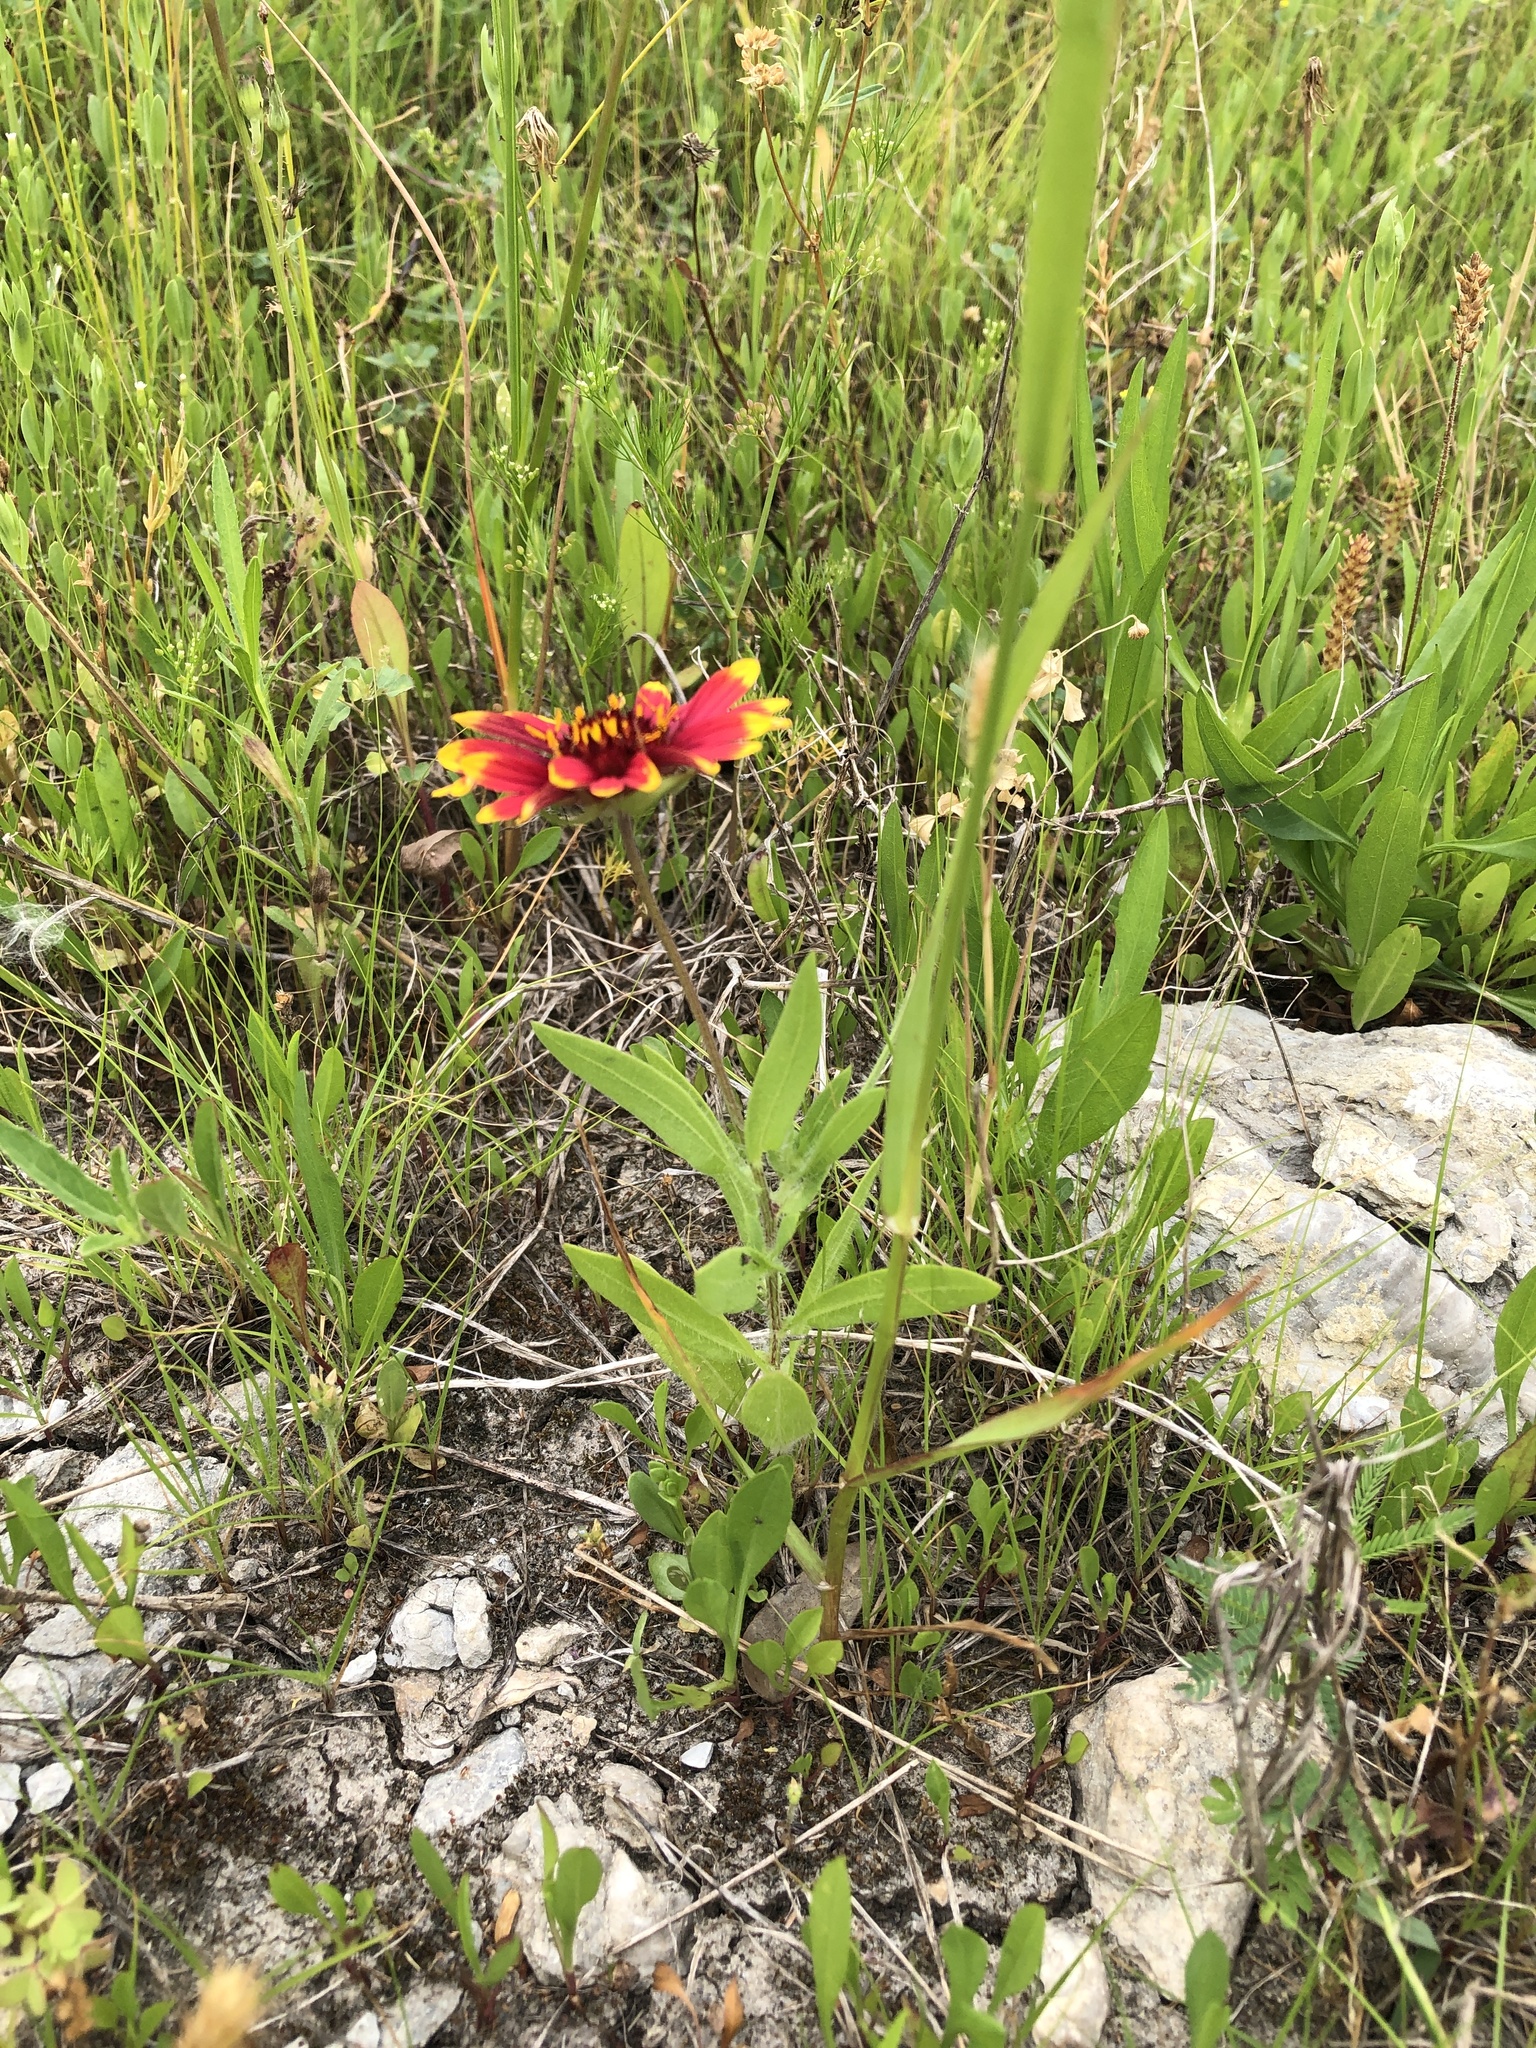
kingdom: Plantae
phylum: Tracheophyta
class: Magnoliopsida
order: Asterales
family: Asteraceae
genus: Gaillardia
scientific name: Gaillardia pulchella
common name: Firewheel
